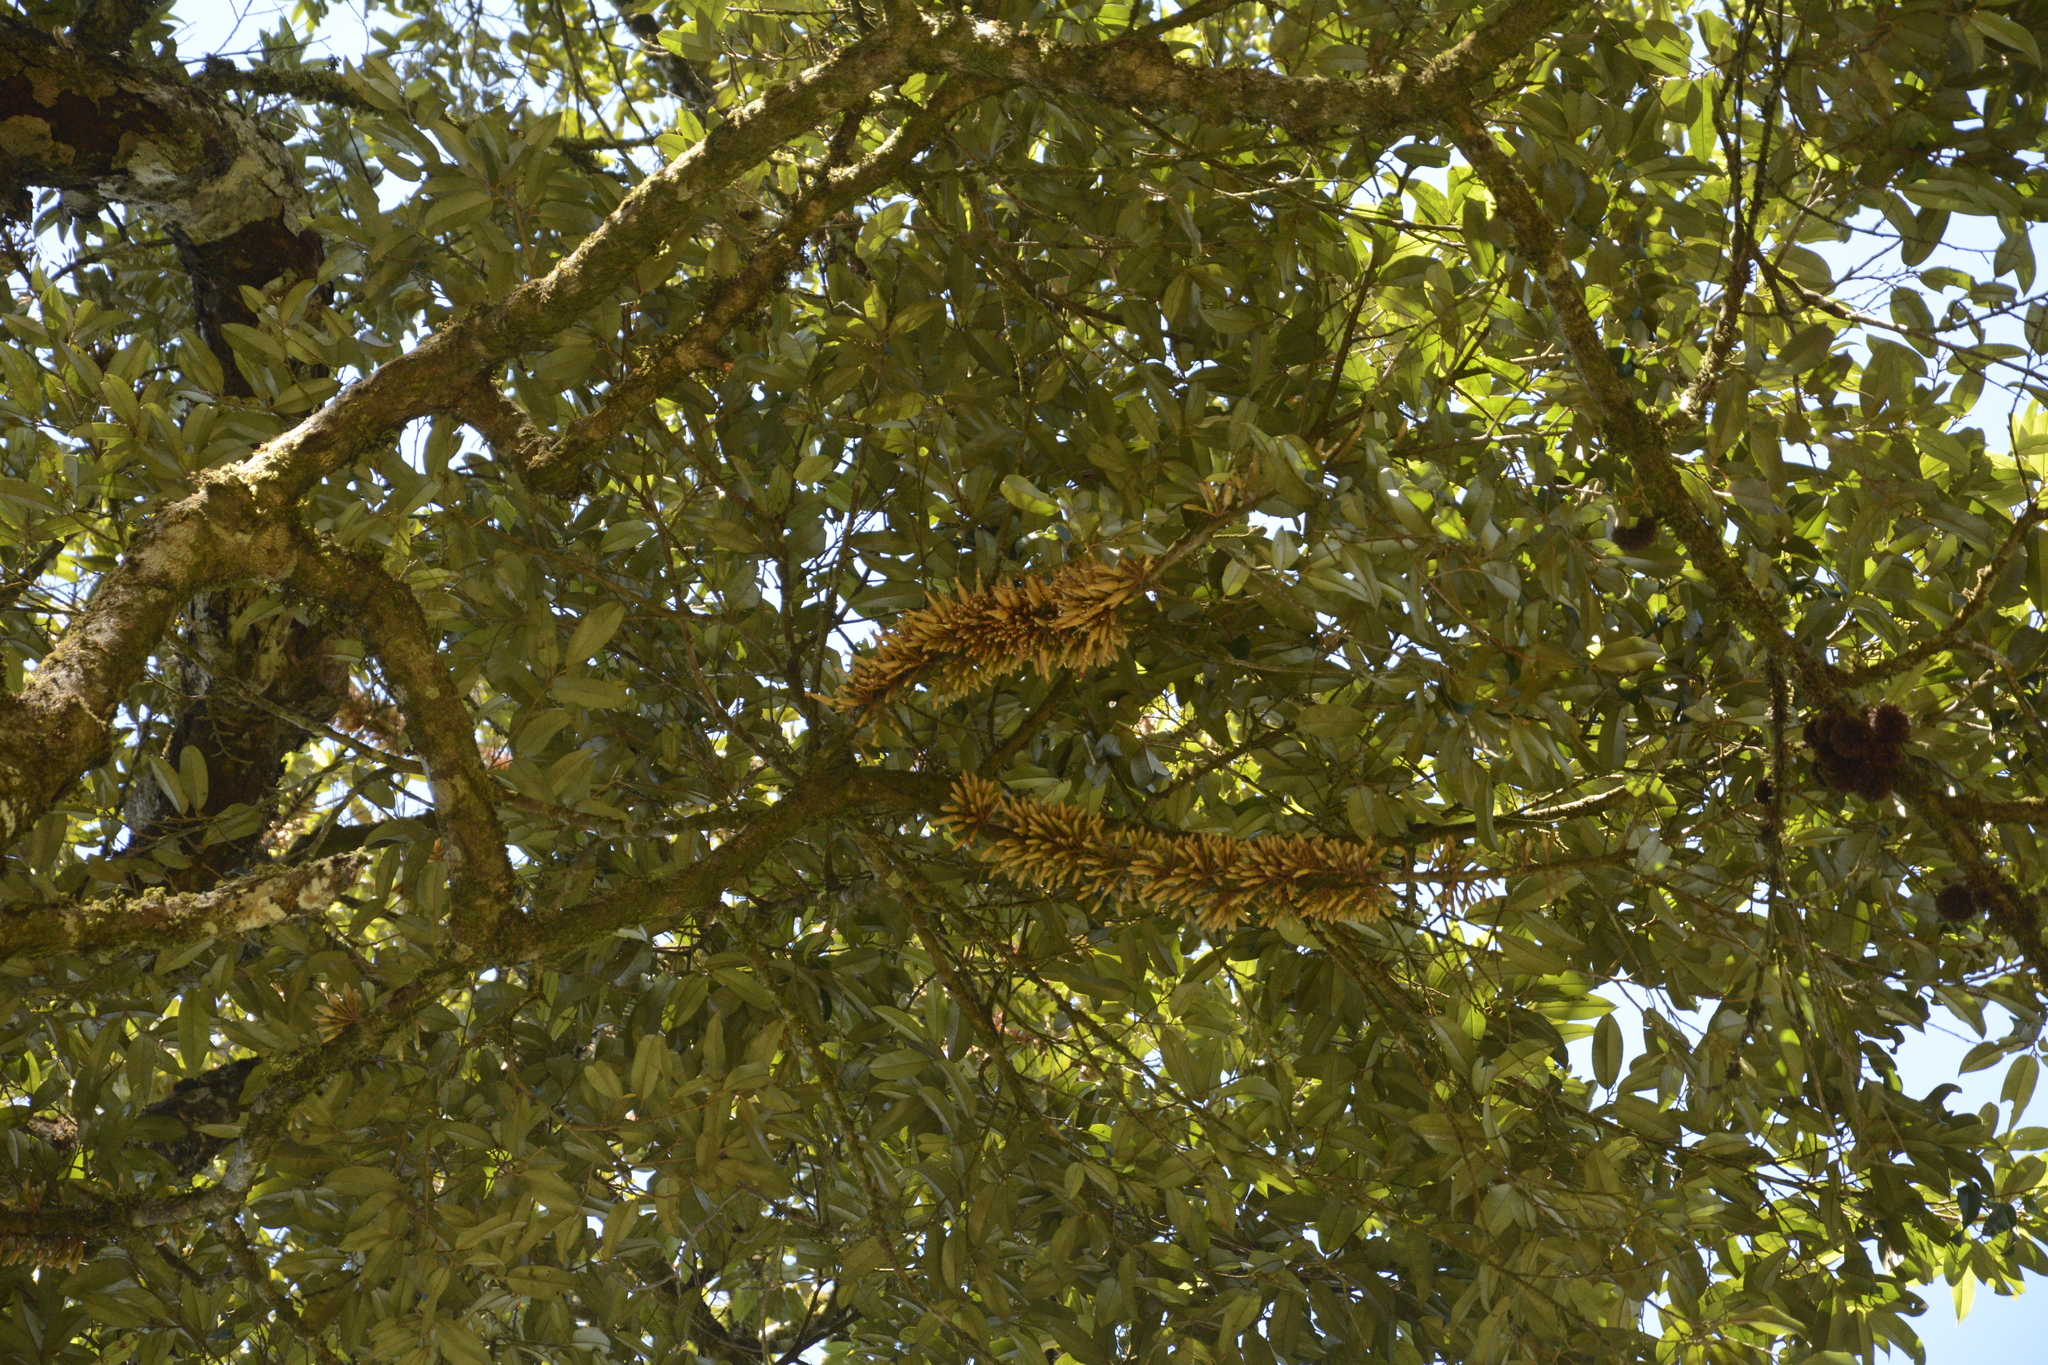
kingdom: Plantae
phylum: Tracheophyta
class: Magnoliopsida
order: Malvales
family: Malvaceae
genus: Cullenia
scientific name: Cullenia exarillata
